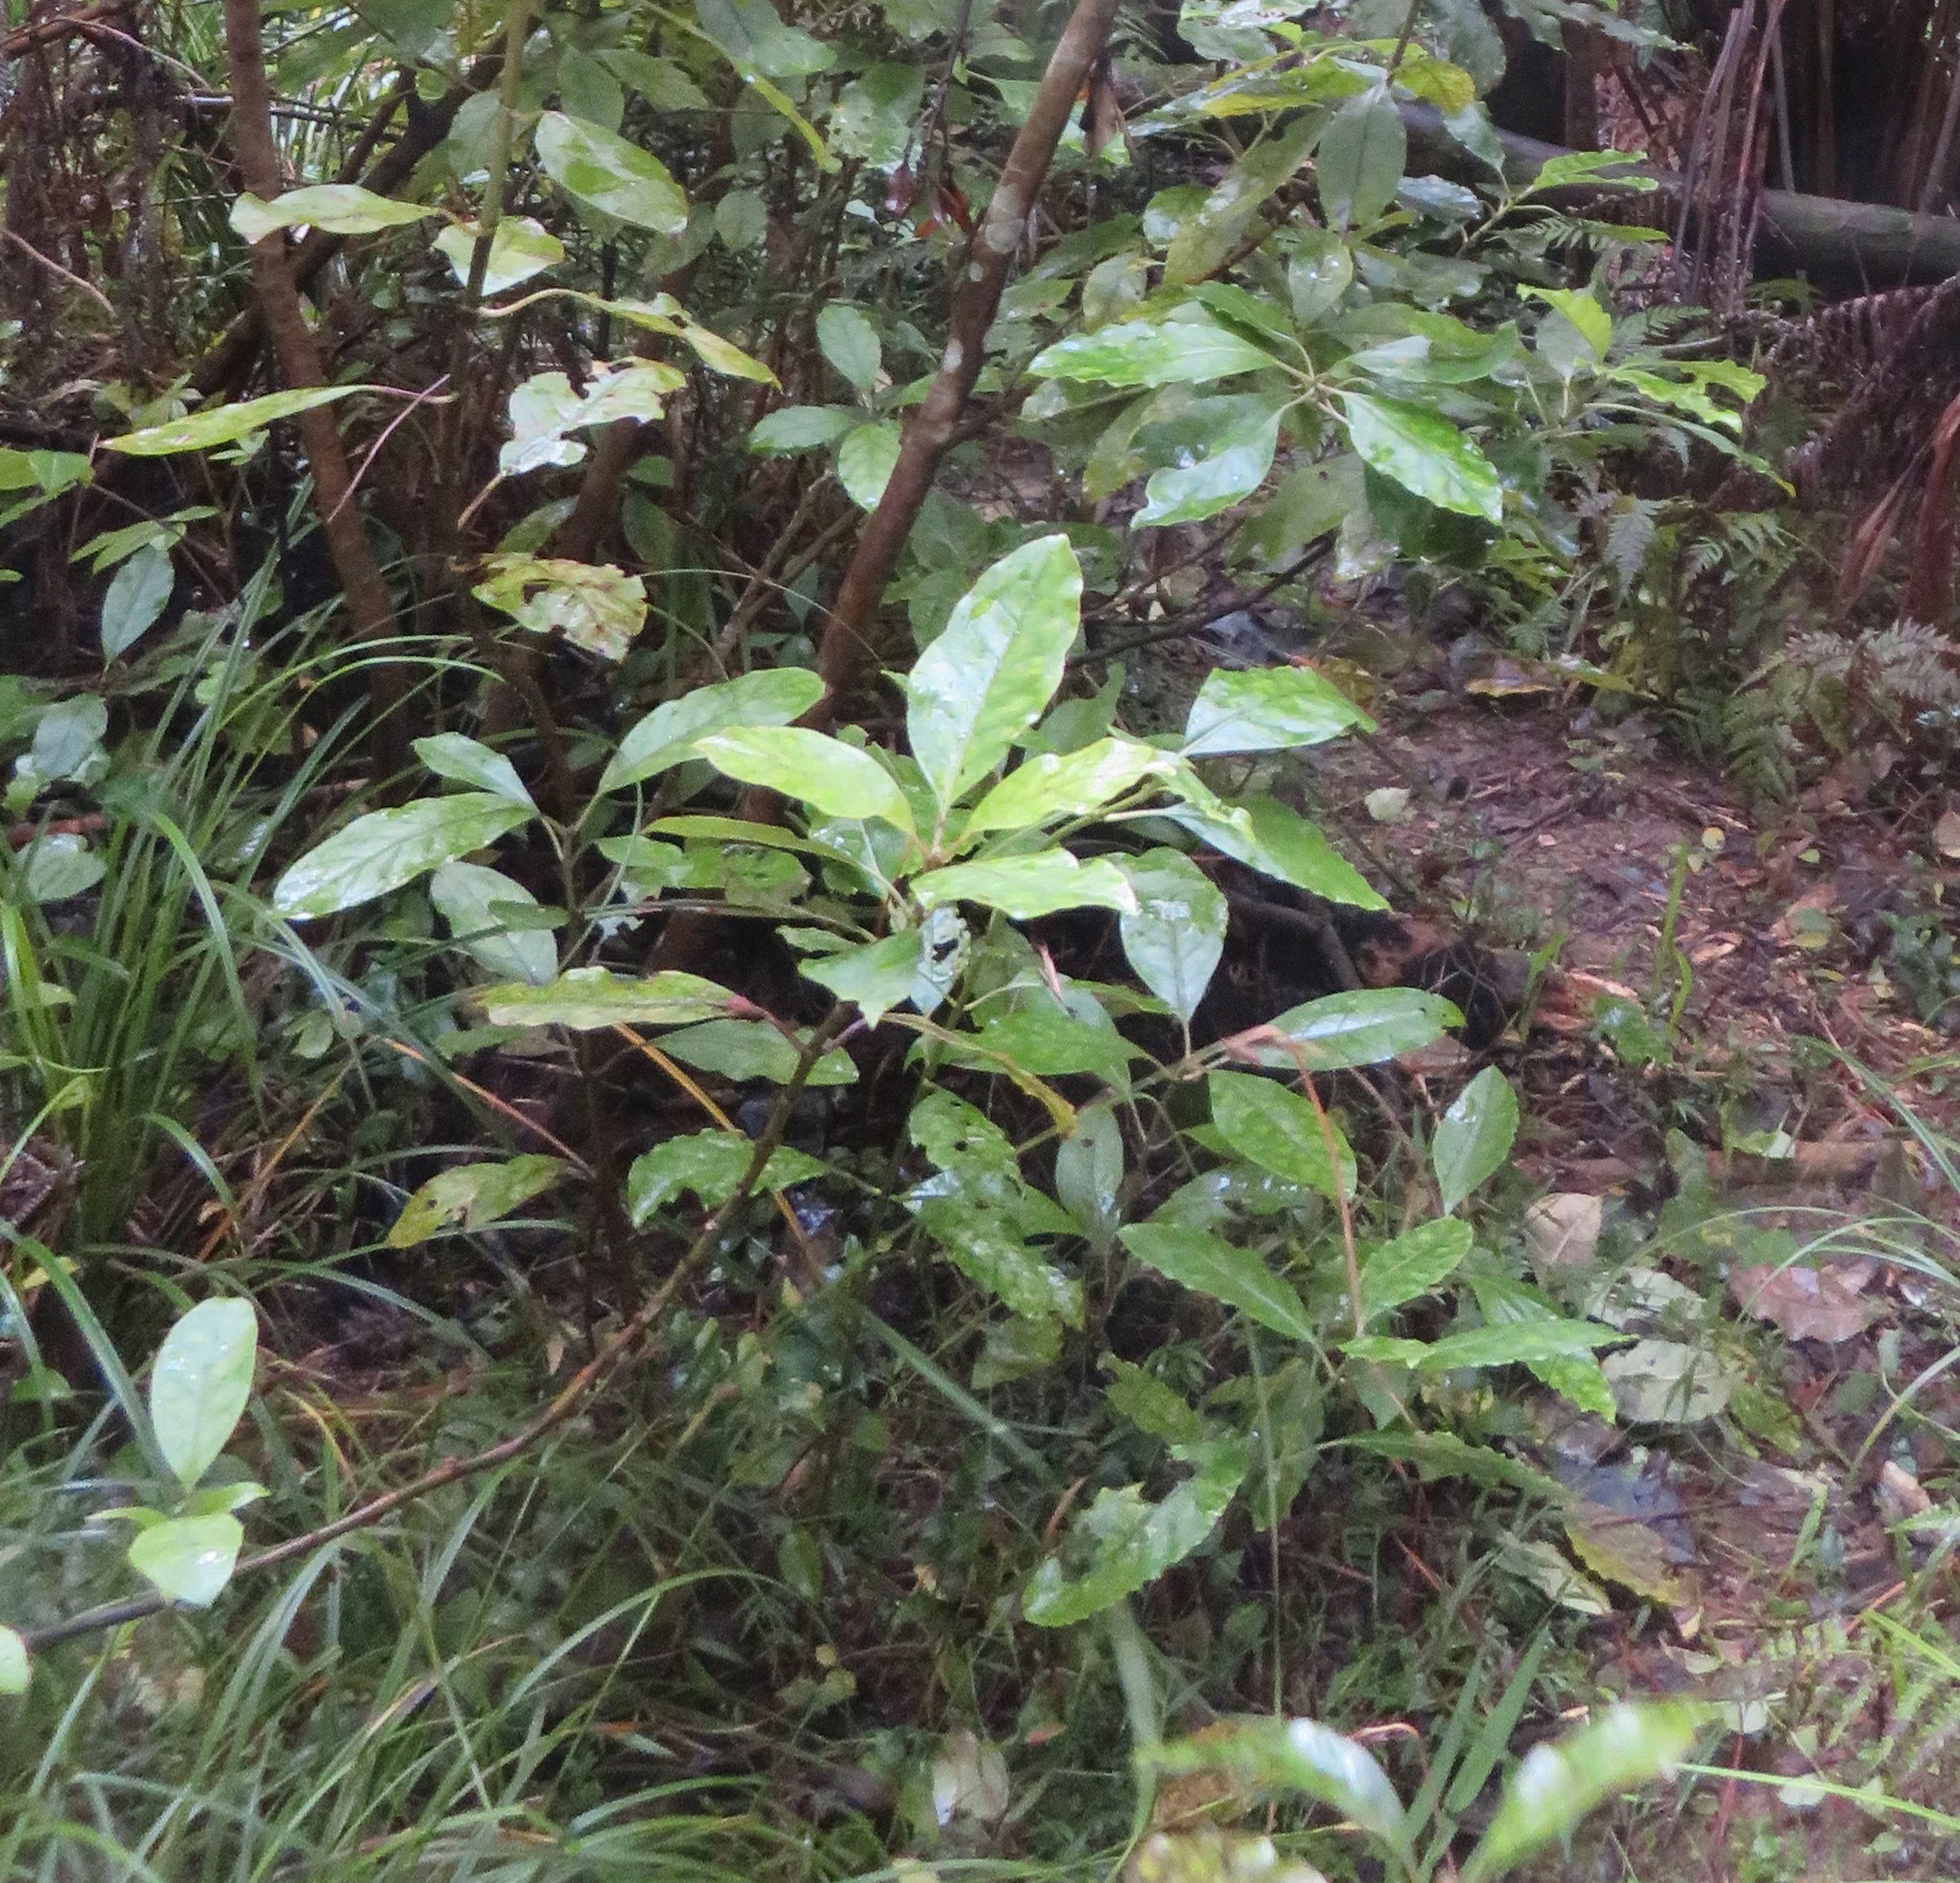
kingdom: Plantae
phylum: Tracheophyta
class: Magnoliopsida
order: Gentianales
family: Rubiaceae
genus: Coprosma
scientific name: Coprosma autumnalis
